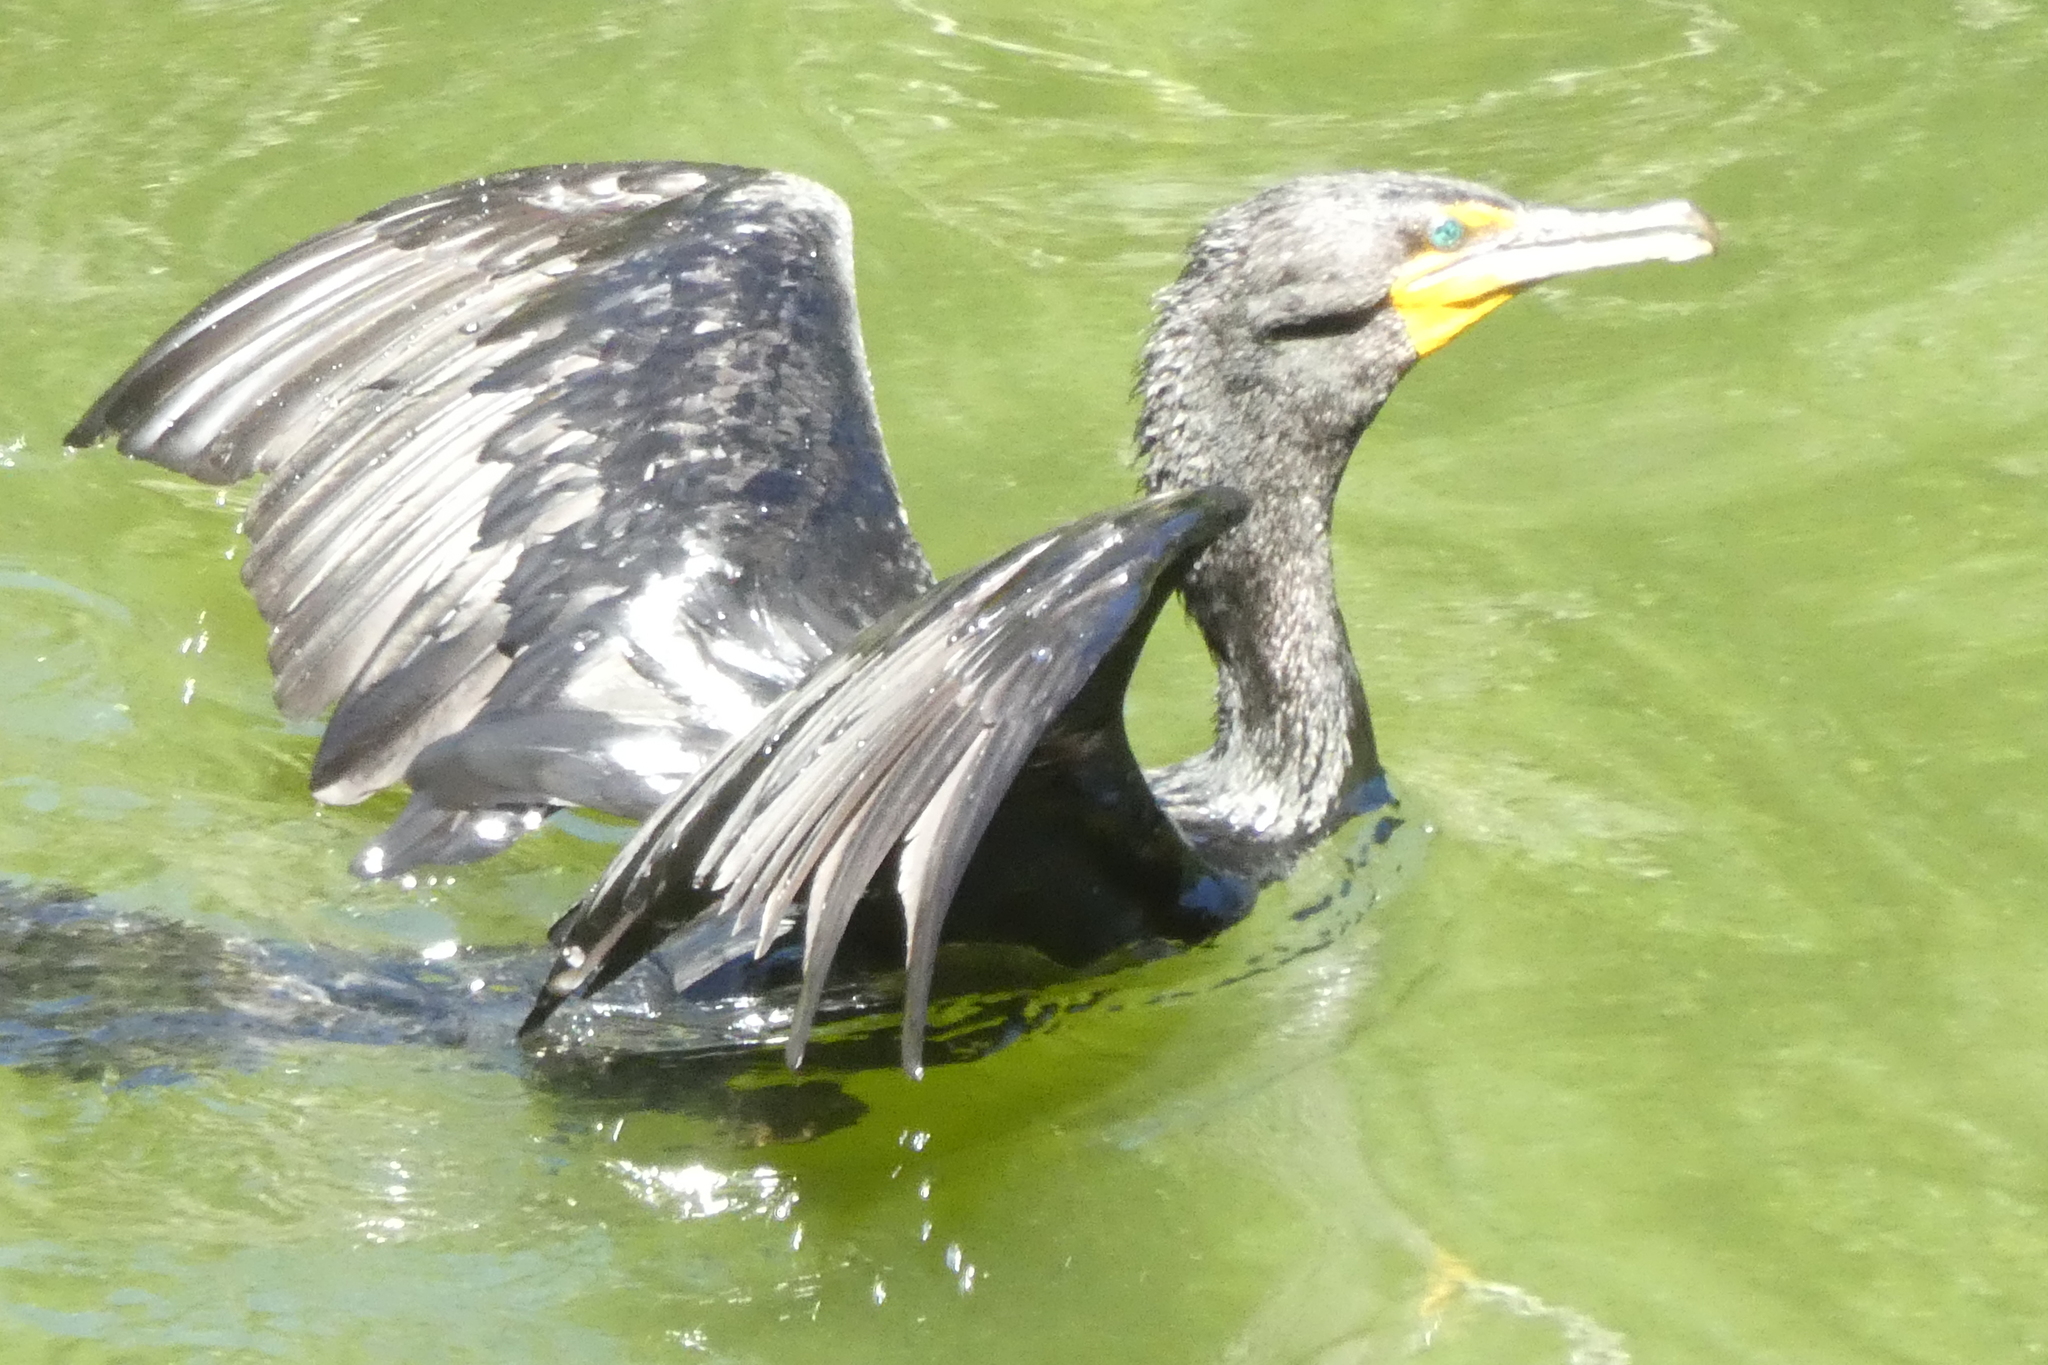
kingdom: Animalia
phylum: Chordata
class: Aves
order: Suliformes
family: Phalacrocoracidae
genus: Phalacrocorax
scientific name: Phalacrocorax auritus
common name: Double-crested cormorant
